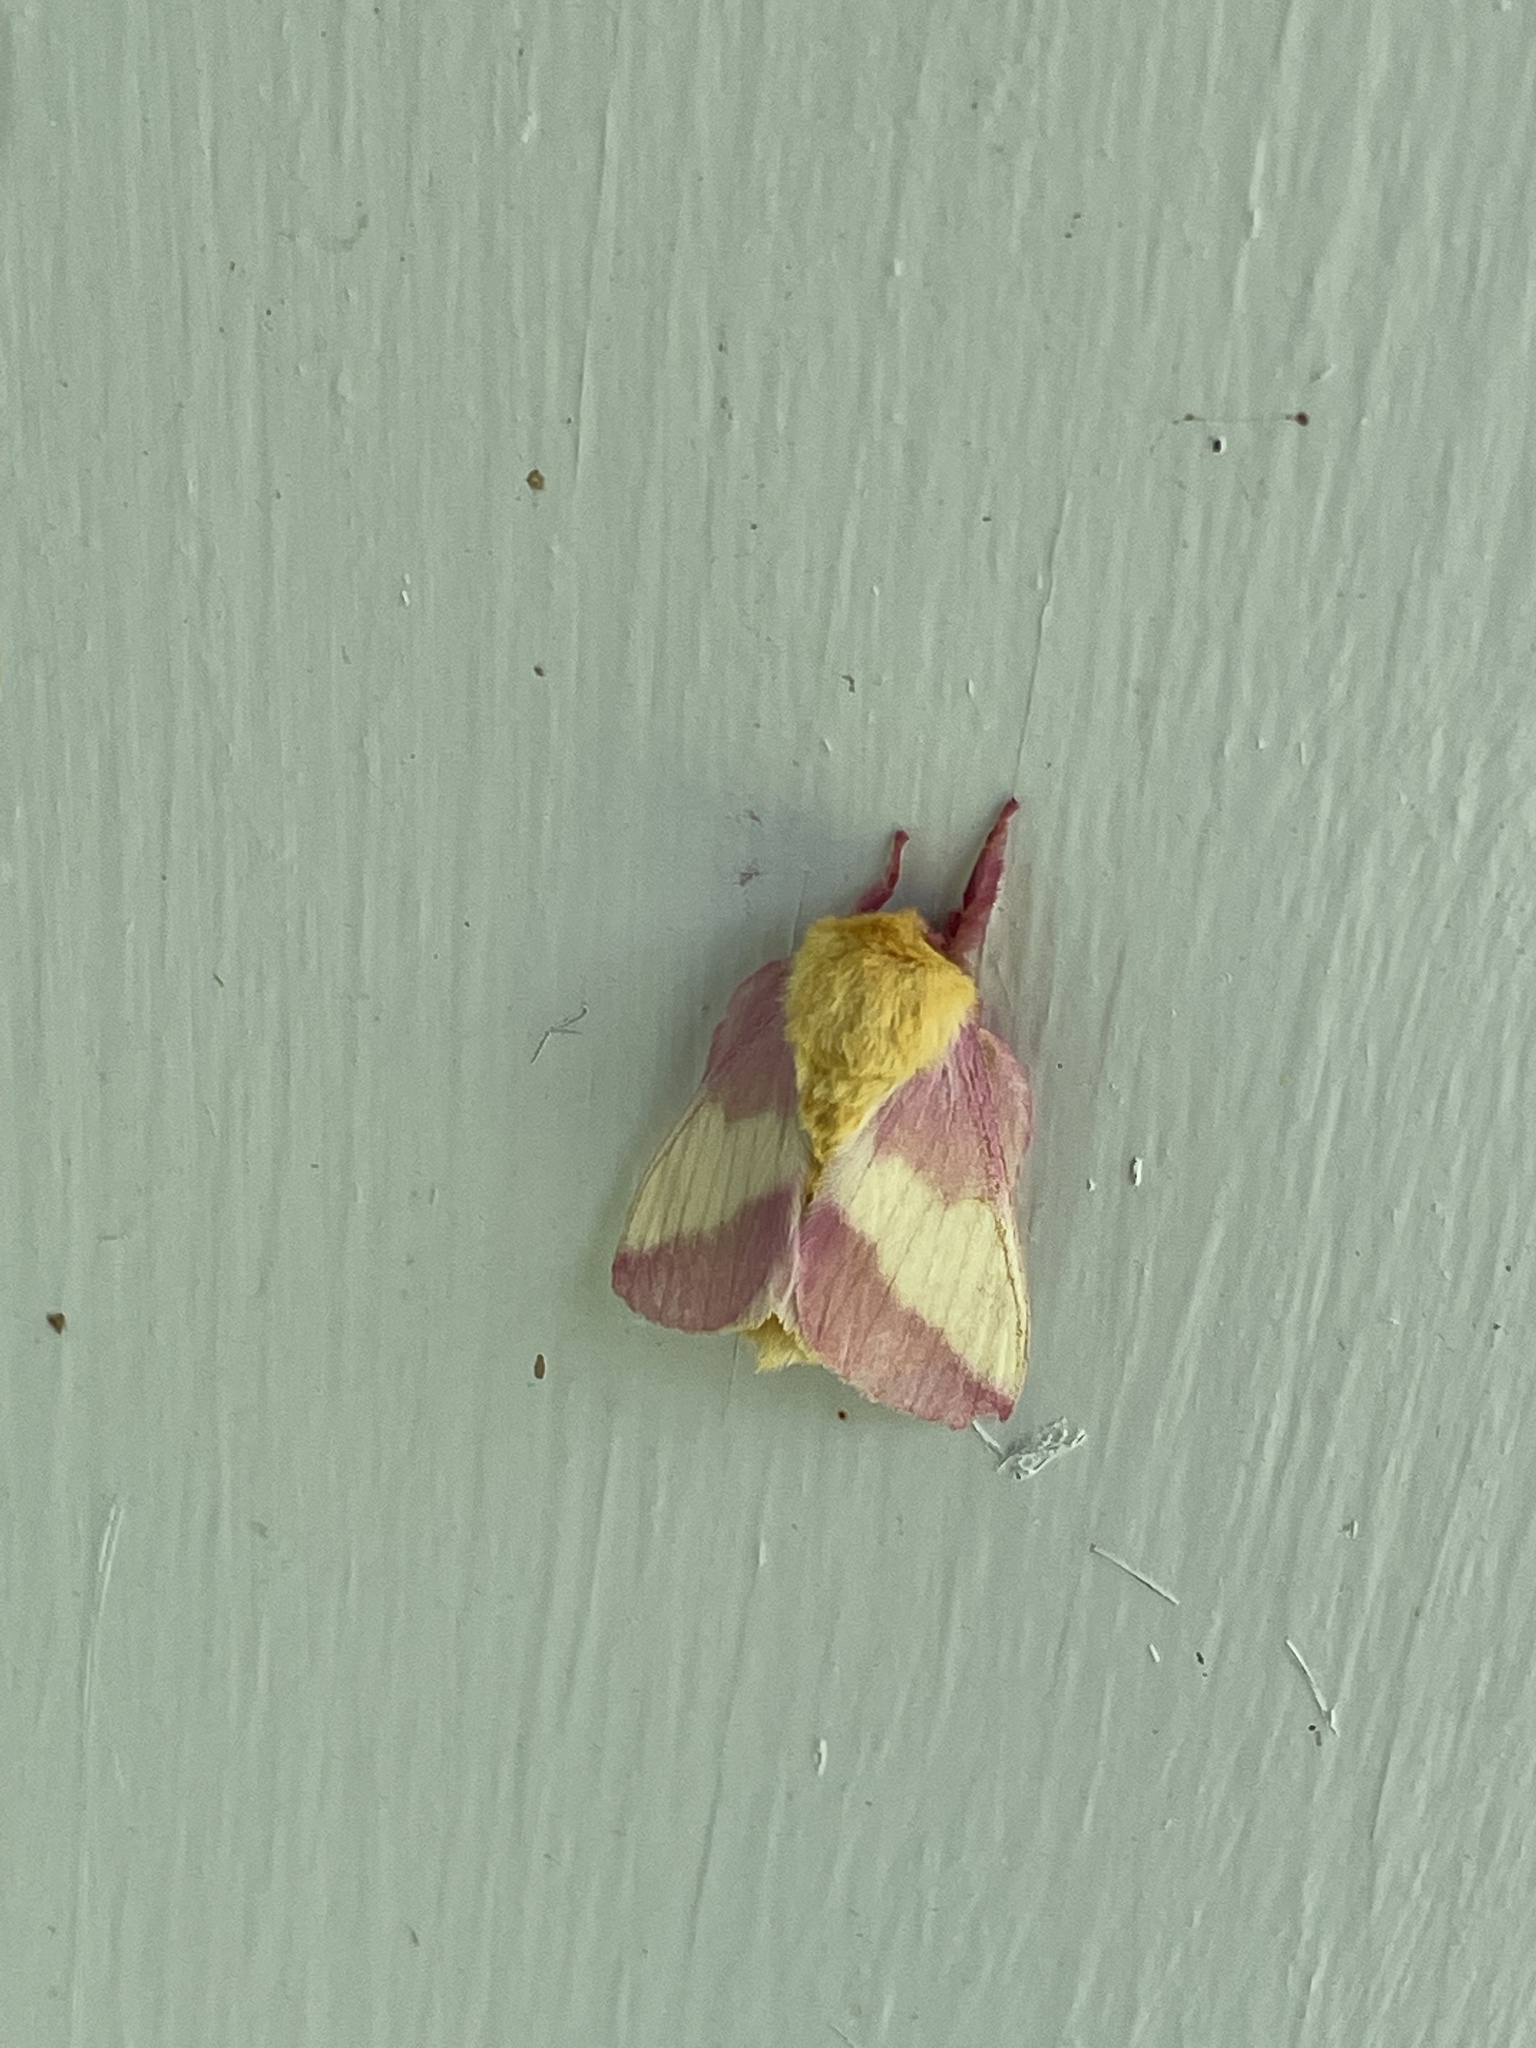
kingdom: Animalia
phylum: Arthropoda
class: Insecta
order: Lepidoptera
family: Saturniidae
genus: Dryocampa
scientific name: Dryocampa rubicunda
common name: Rosy maple moth
